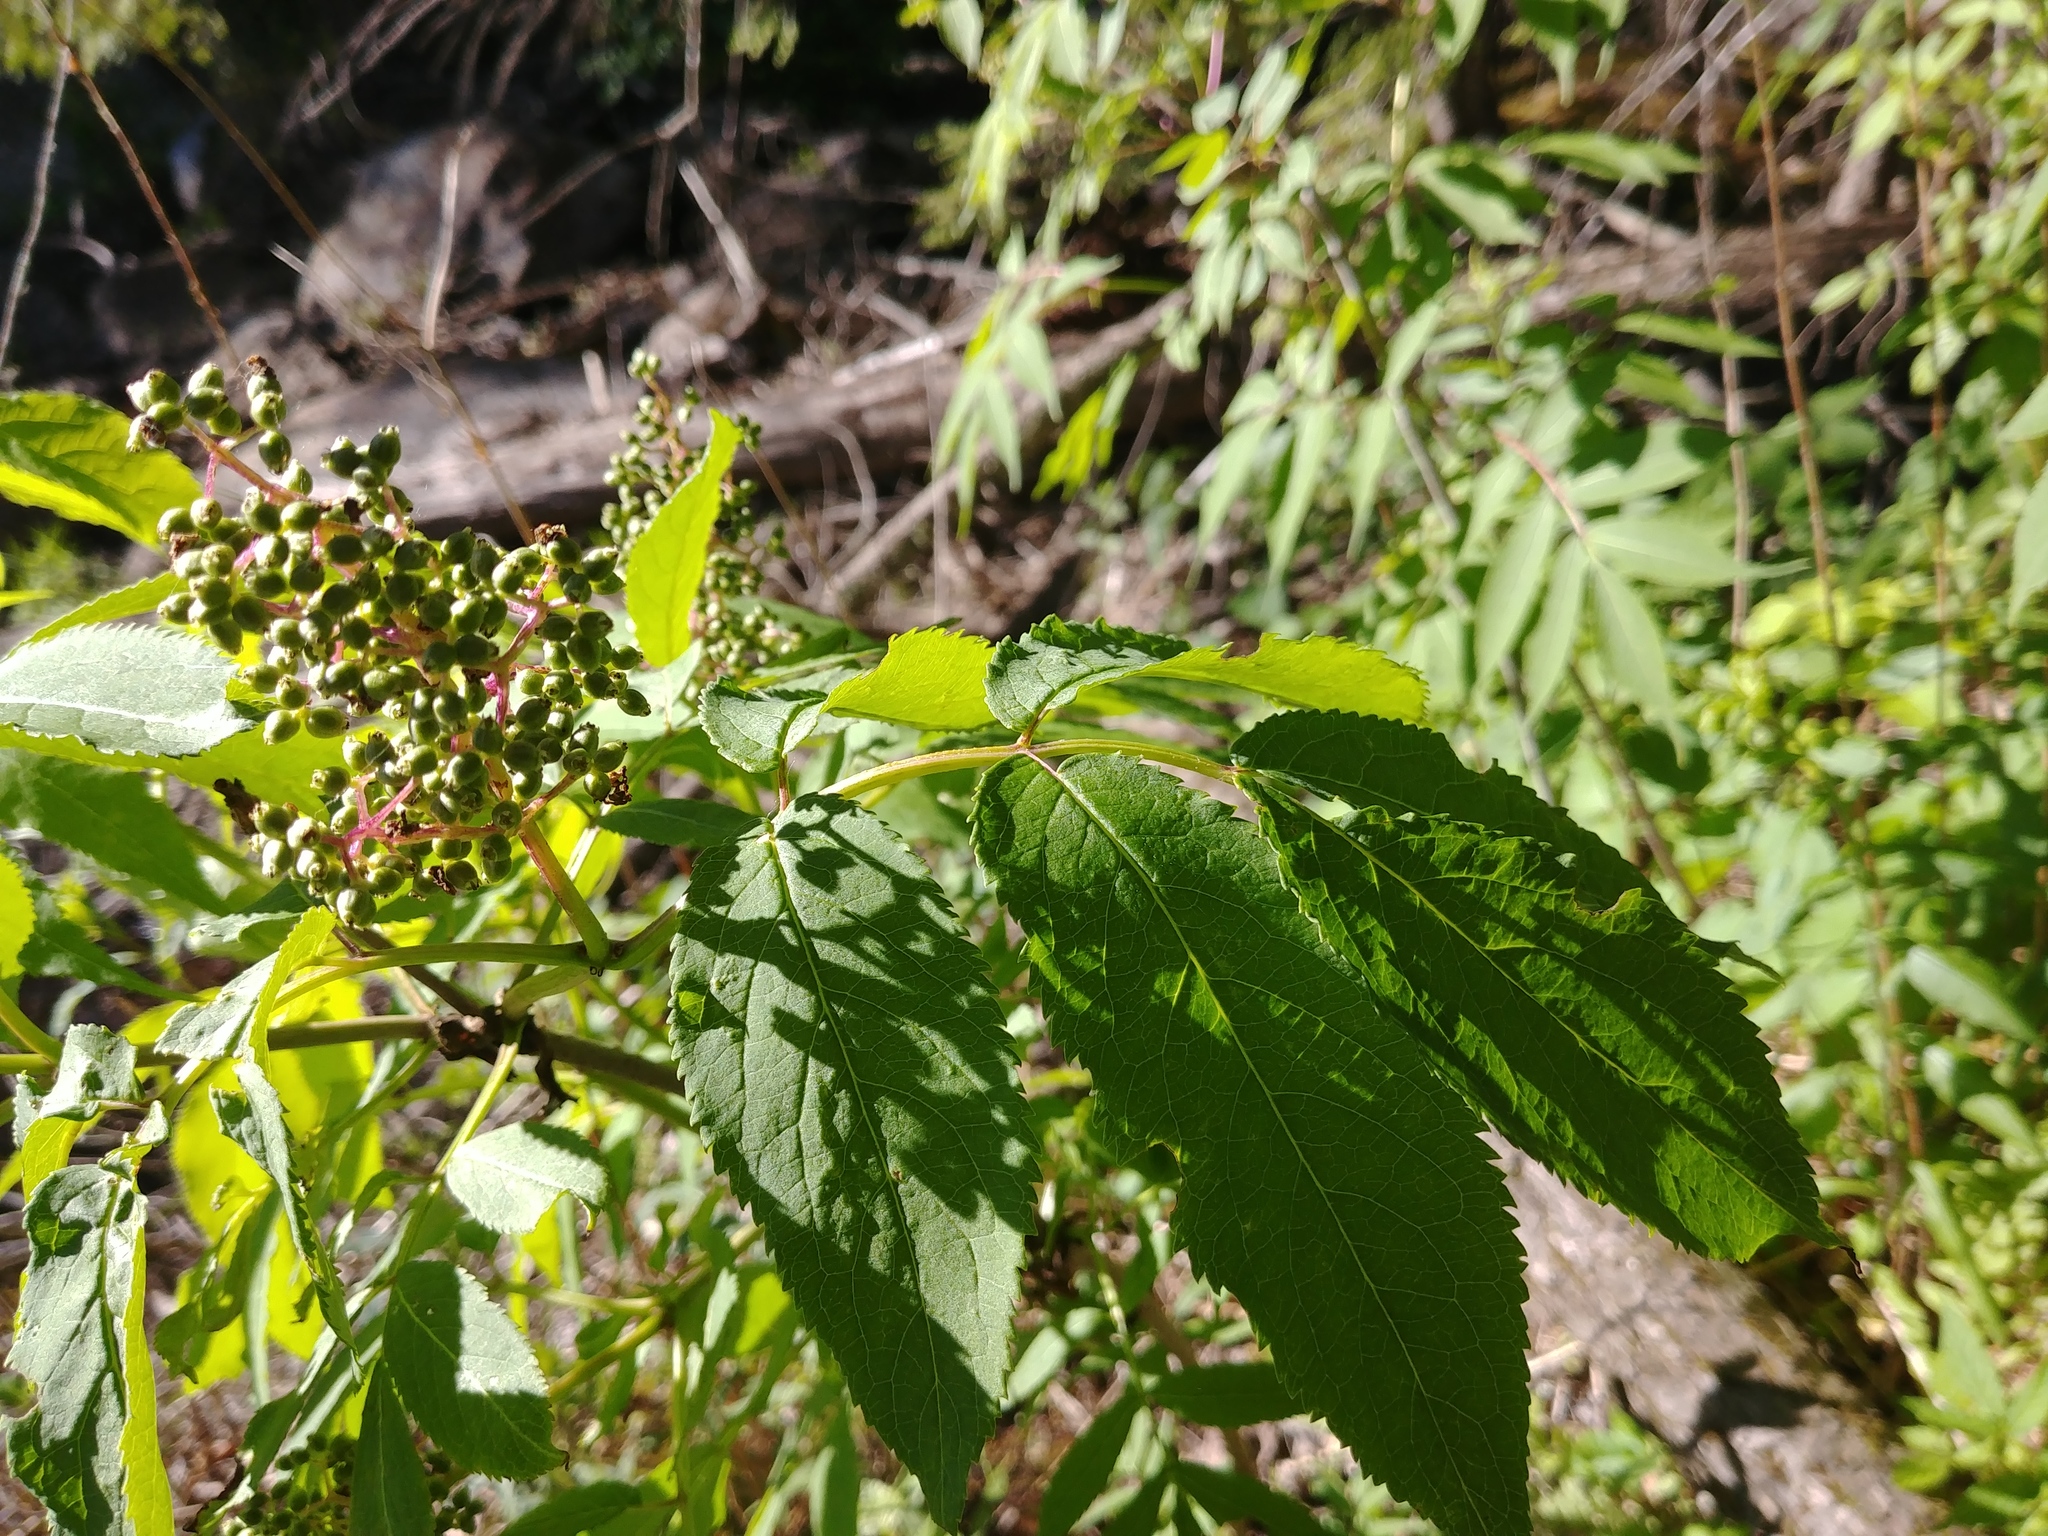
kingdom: Plantae
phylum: Tracheophyta
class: Magnoliopsida
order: Dipsacales
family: Viburnaceae
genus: Sambucus
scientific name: Sambucus racemosa
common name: Red-berried elder
